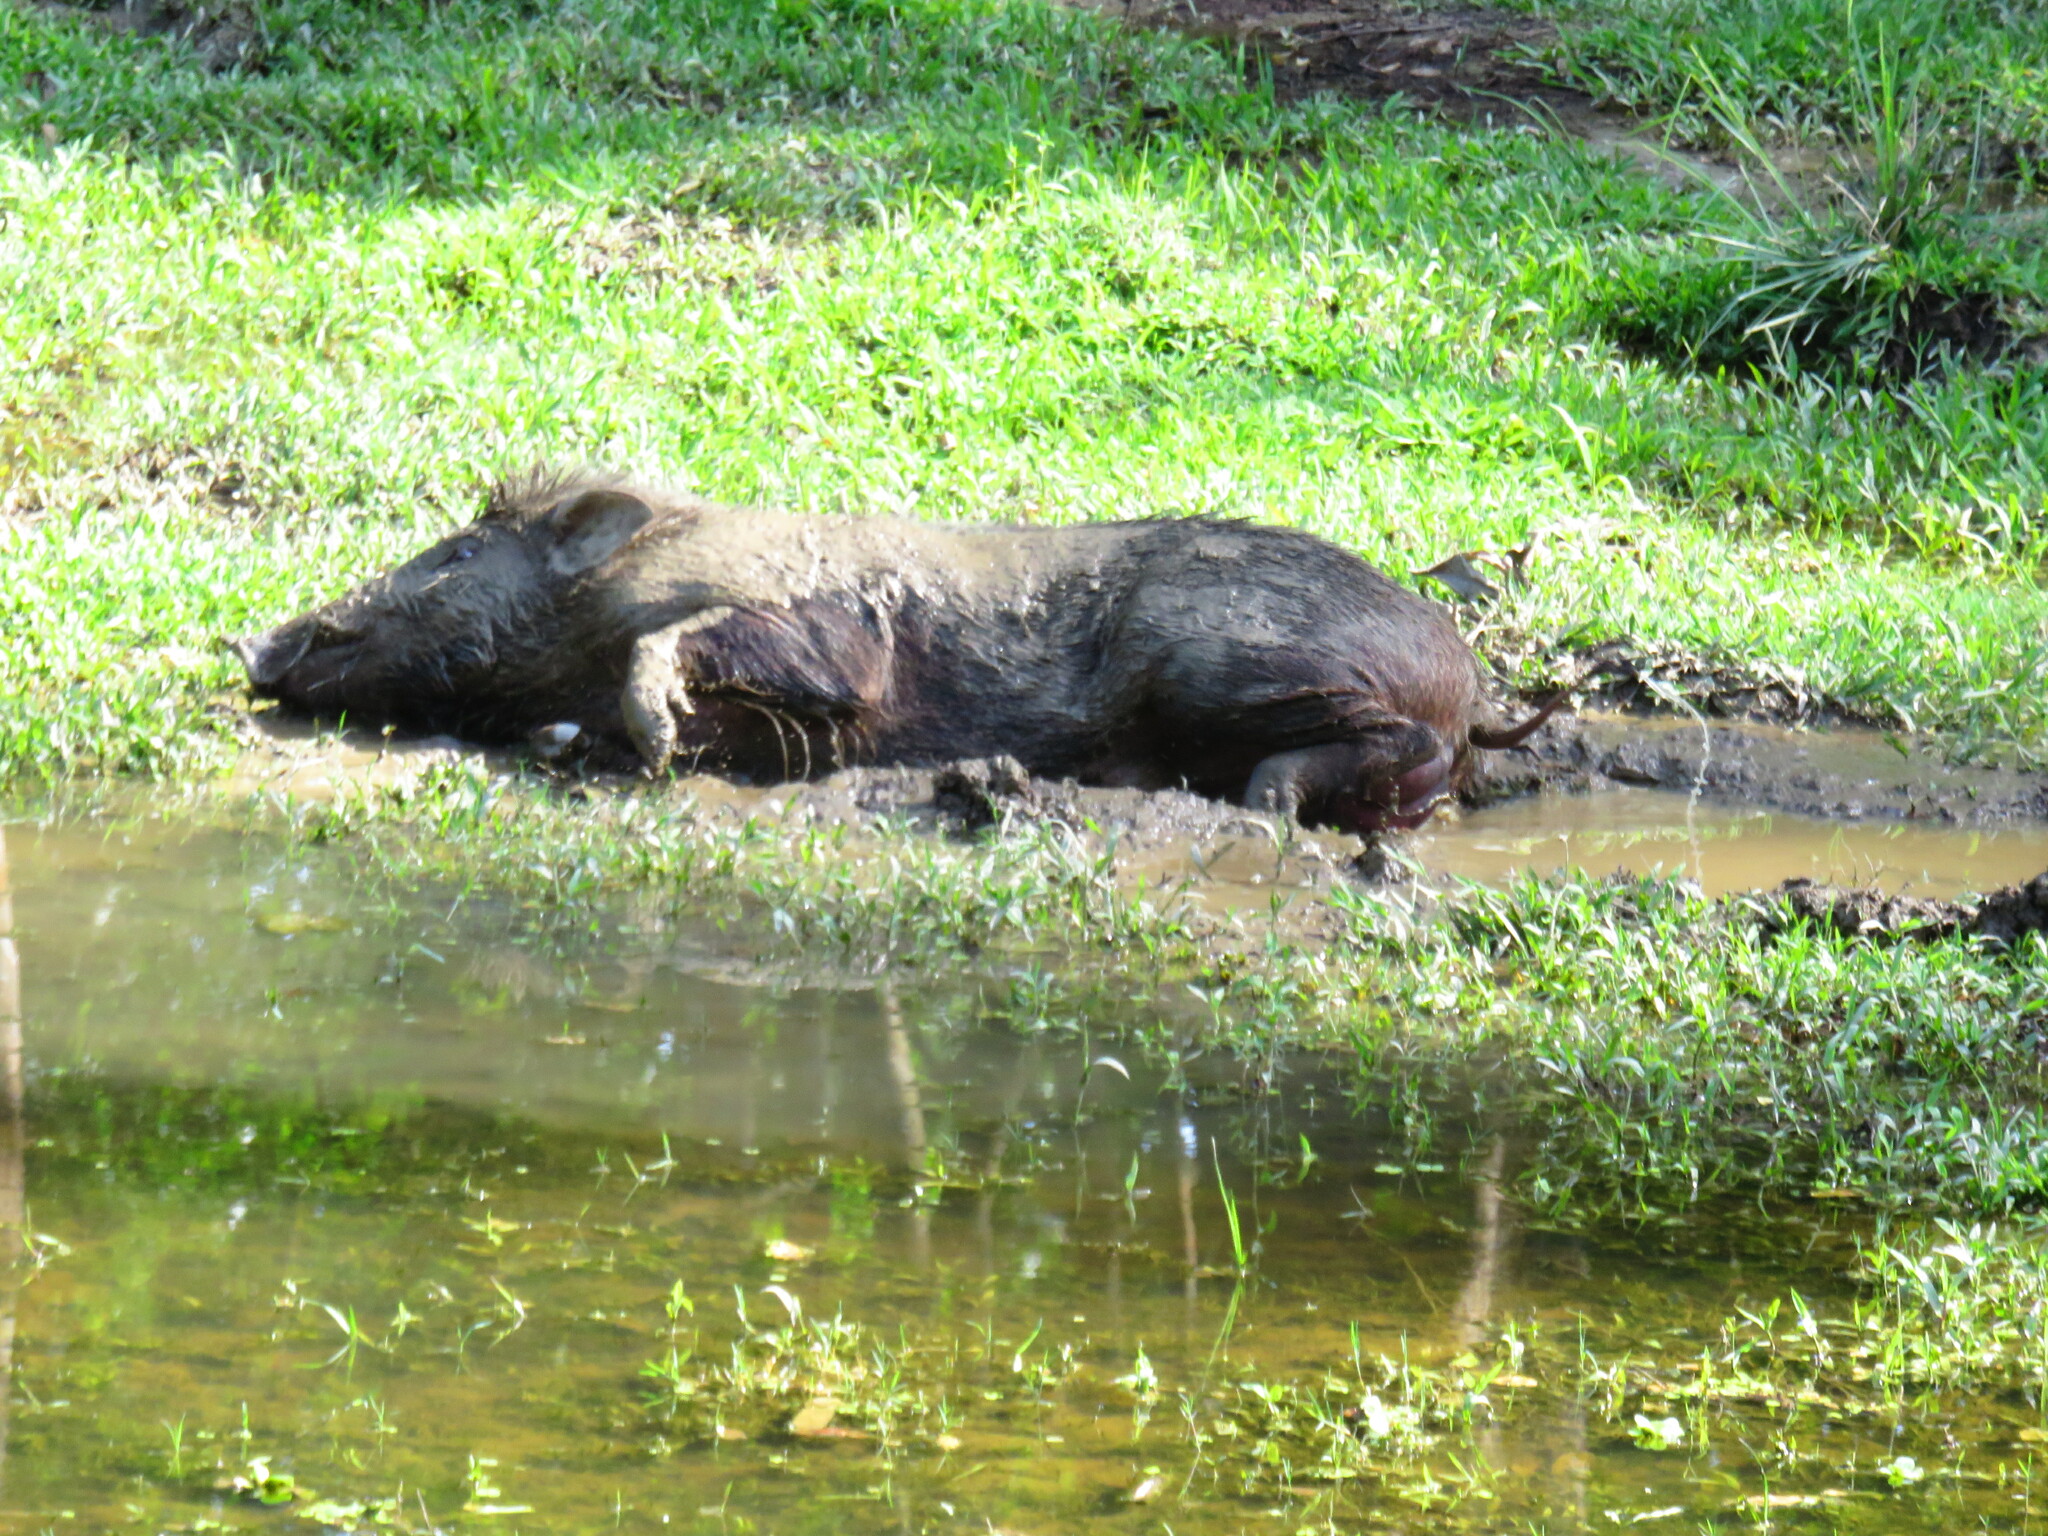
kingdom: Animalia
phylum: Chordata
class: Mammalia
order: Artiodactyla
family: Suidae
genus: Sus
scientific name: Sus scrofa
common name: Wild boar
